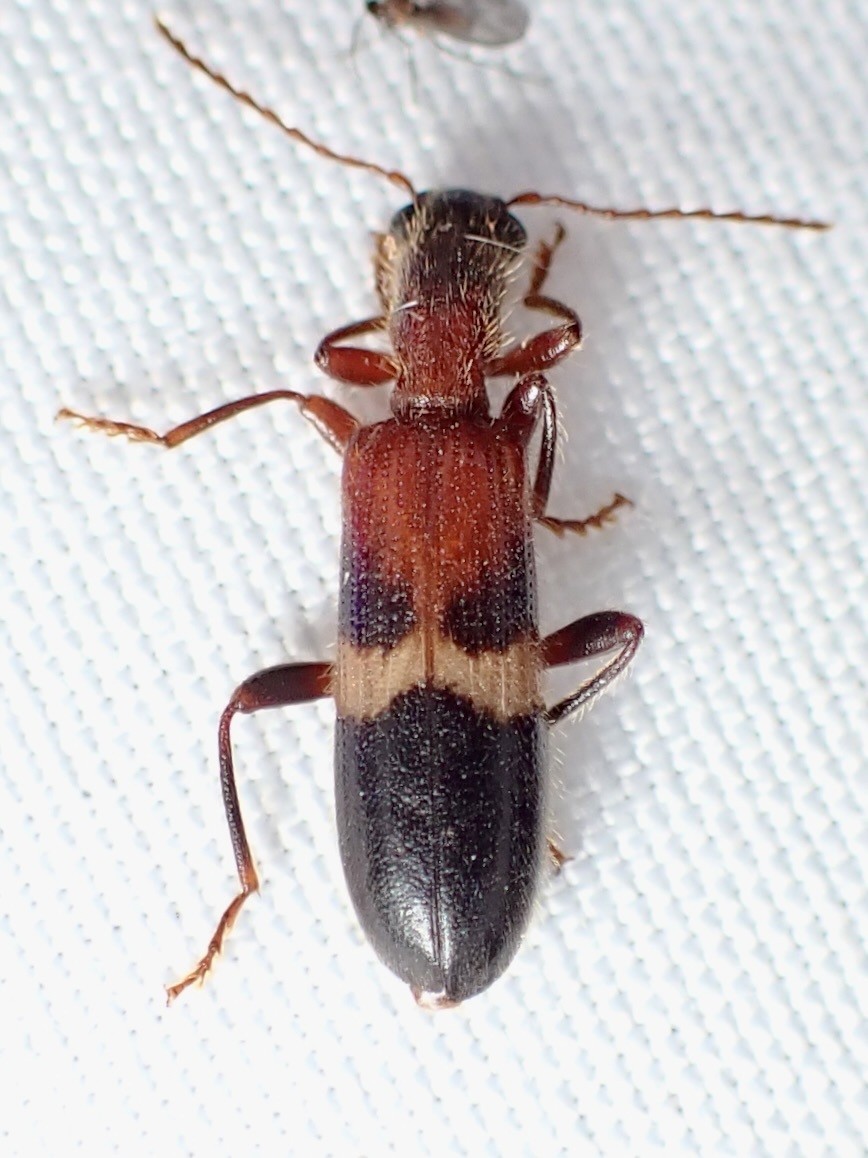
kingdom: Animalia
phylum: Arthropoda
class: Insecta
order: Coleoptera
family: Cleridae
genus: Cymatodera
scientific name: Cymatodera tricolor
